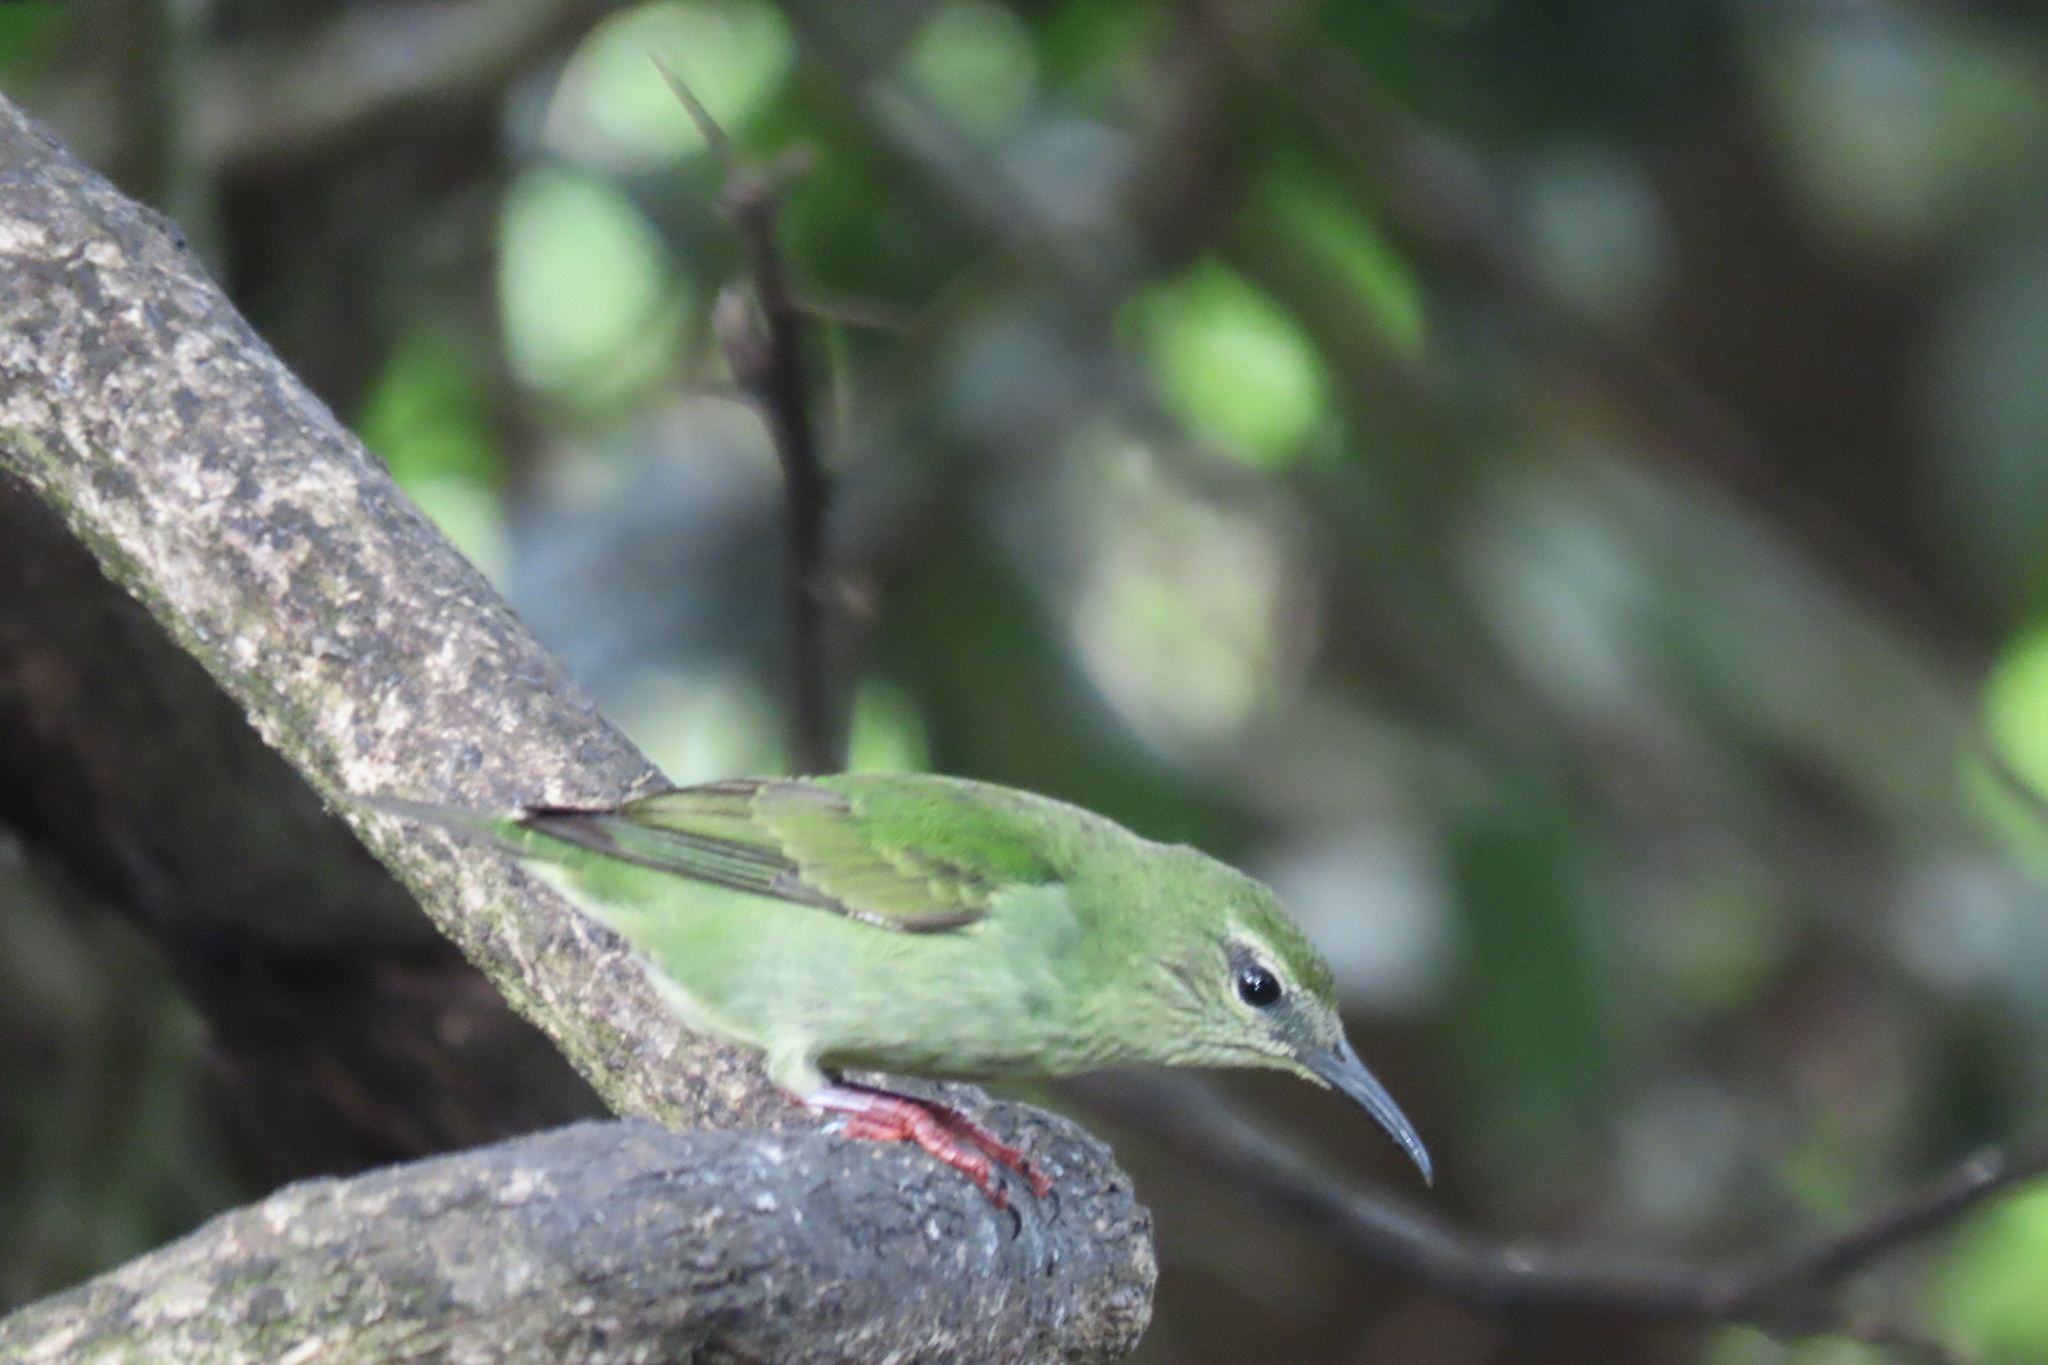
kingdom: Animalia
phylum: Chordata
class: Aves
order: Passeriformes
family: Thraupidae
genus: Cyanerpes
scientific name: Cyanerpes cyaneus
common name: Red-legged honeycreeper
